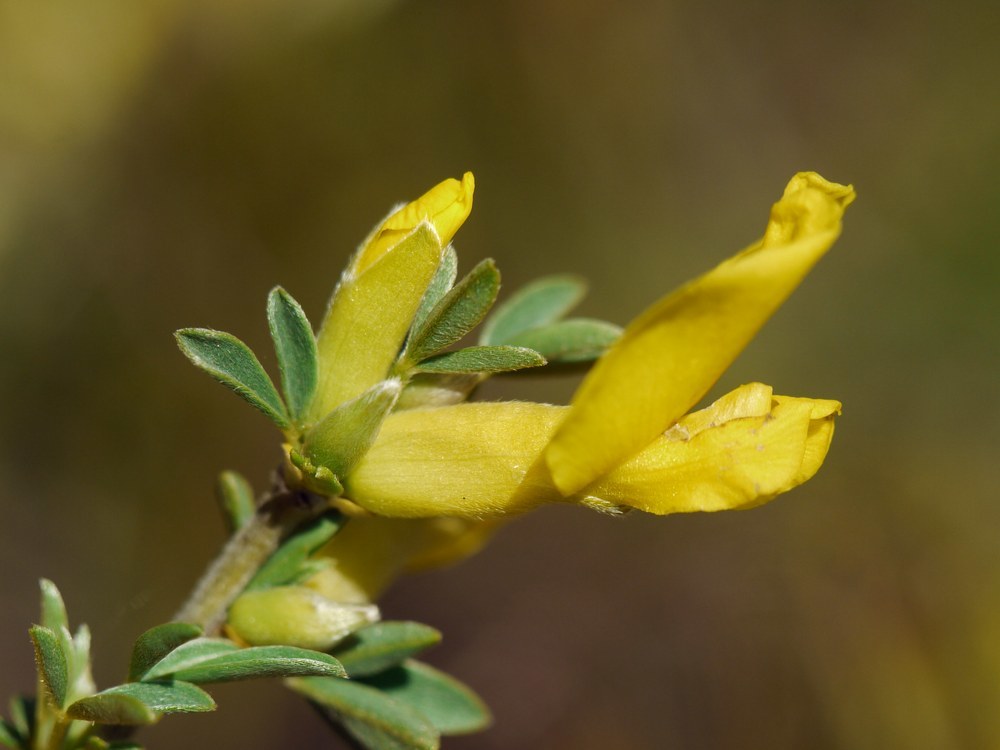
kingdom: Plantae
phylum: Tracheophyta
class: Magnoliopsida
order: Fabales
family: Fabaceae
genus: Chamaecytisus
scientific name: Chamaecytisus borysthenicus
